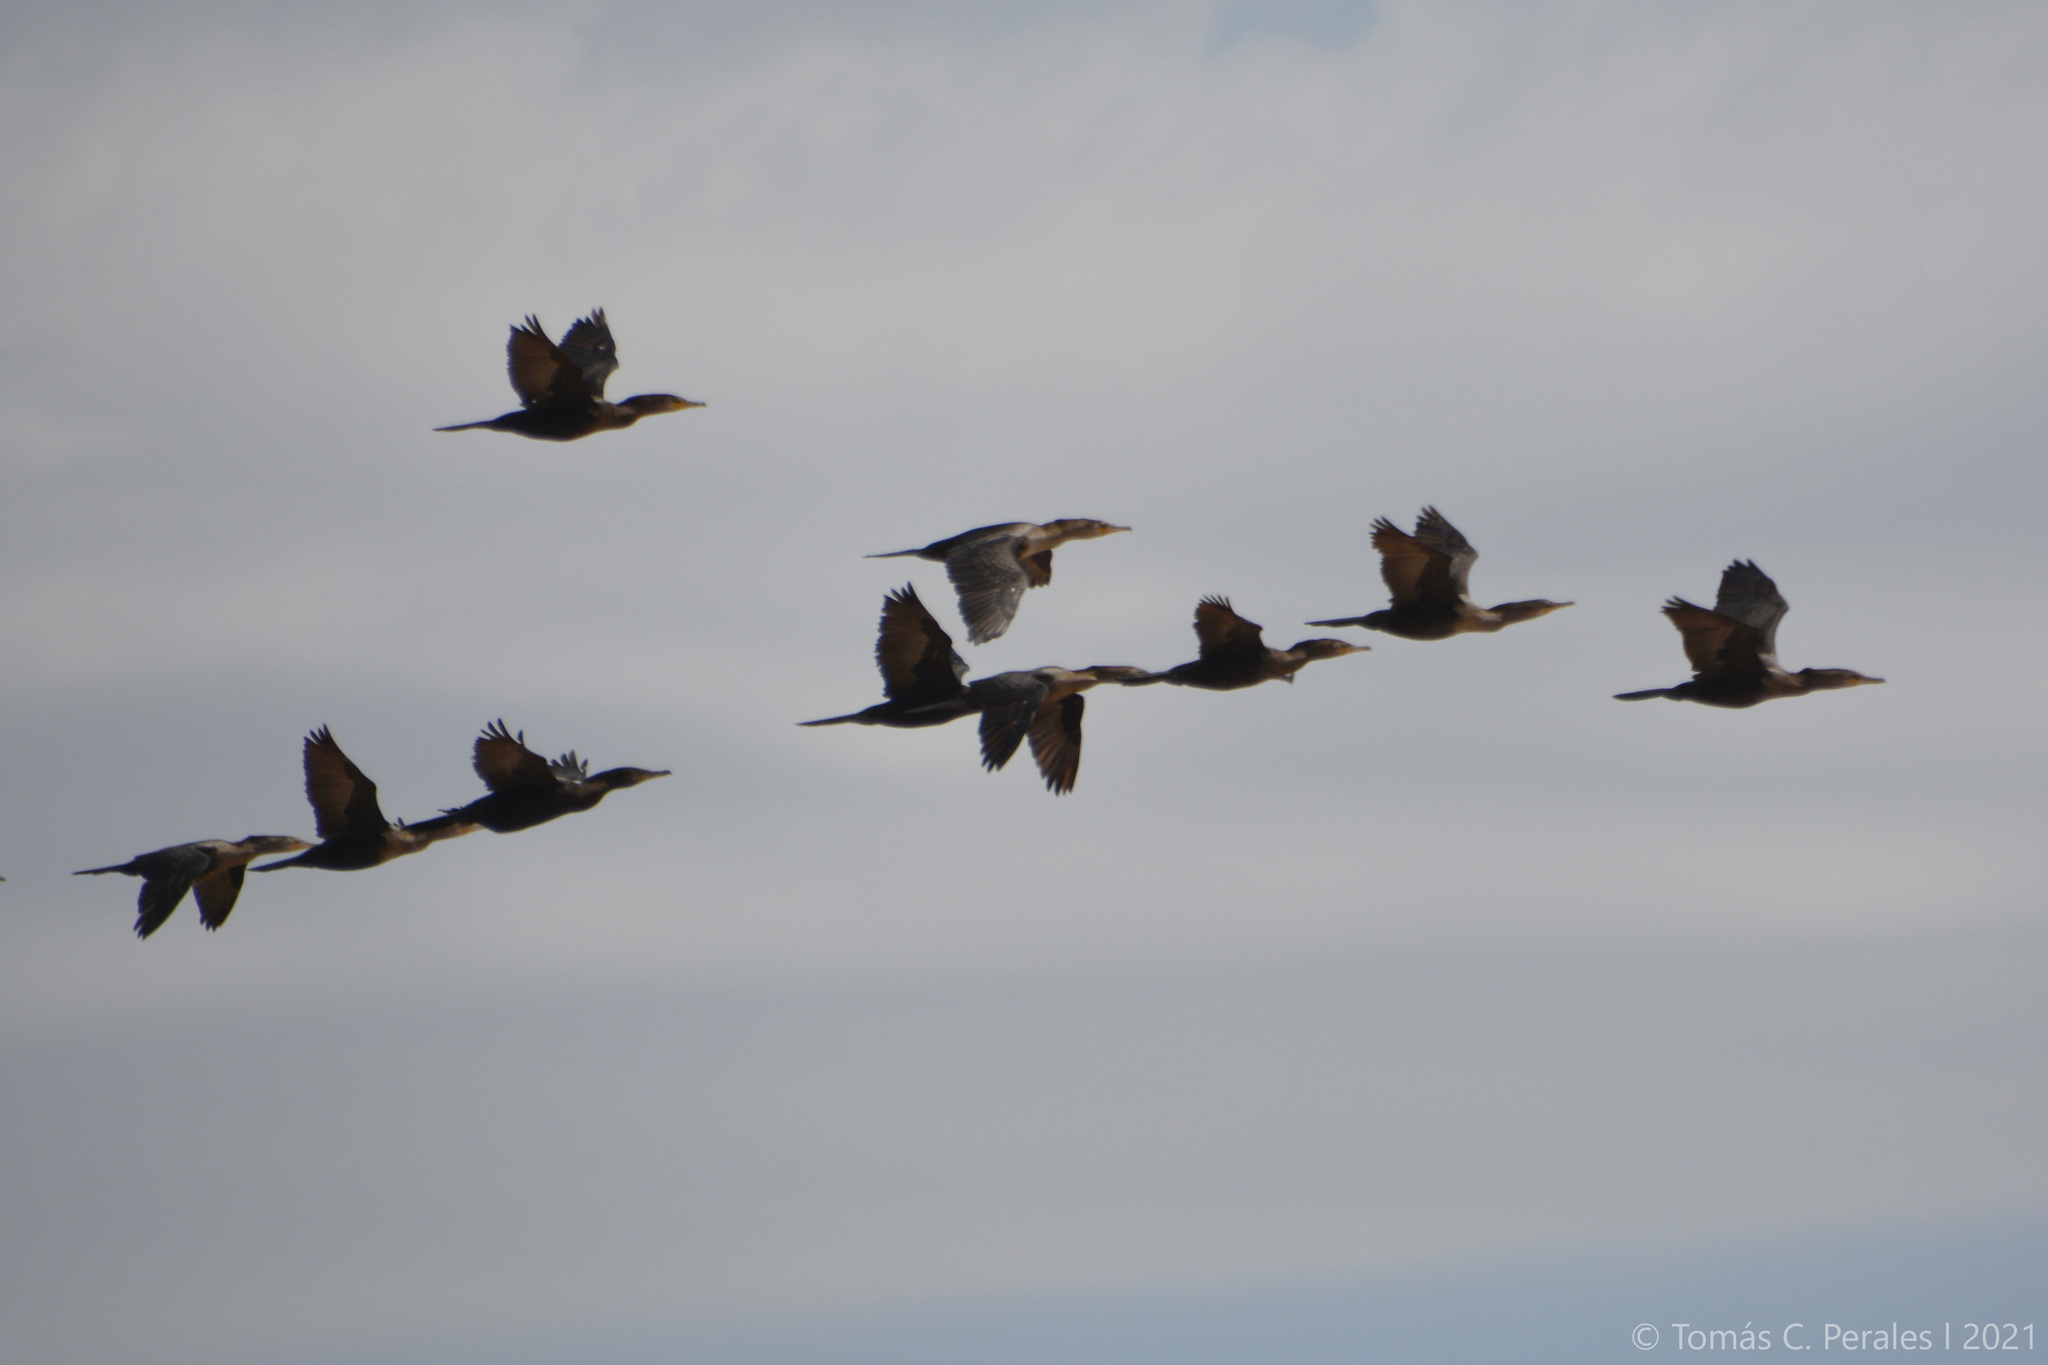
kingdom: Animalia
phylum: Chordata
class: Aves
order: Suliformes
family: Phalacrocoracidae
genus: Phalacrocorax
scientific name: Phalacrocorax brasilianus
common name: Neotropic cormorant
